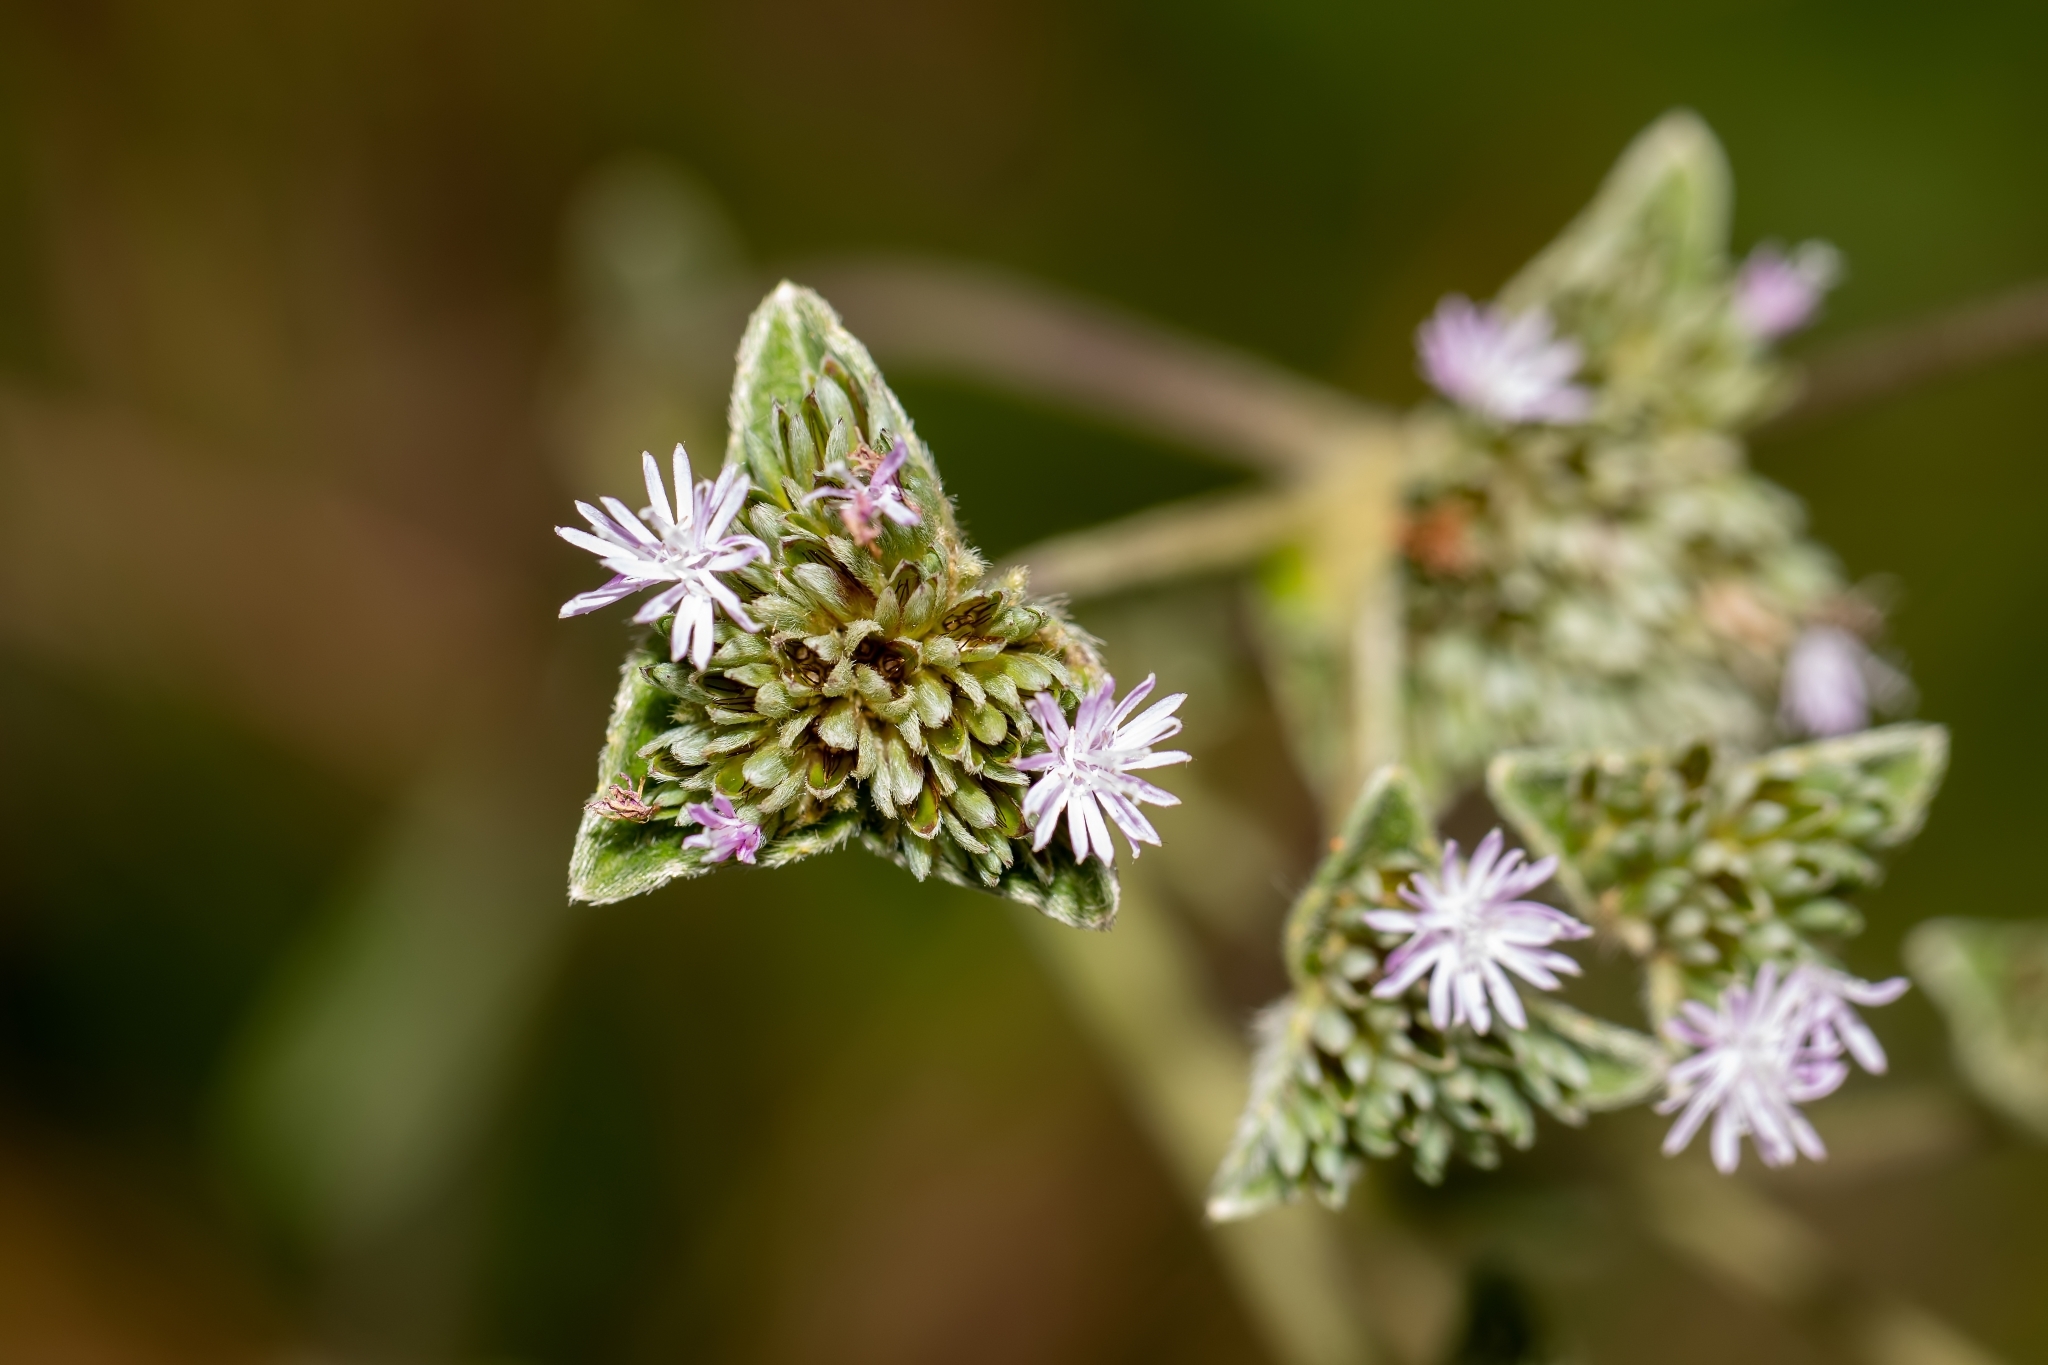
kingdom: Plantae
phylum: Tracheophyta
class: Magnoliopsida
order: Asterales
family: Asteraceae
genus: Elephantopus
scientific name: Elephantopus elatus
